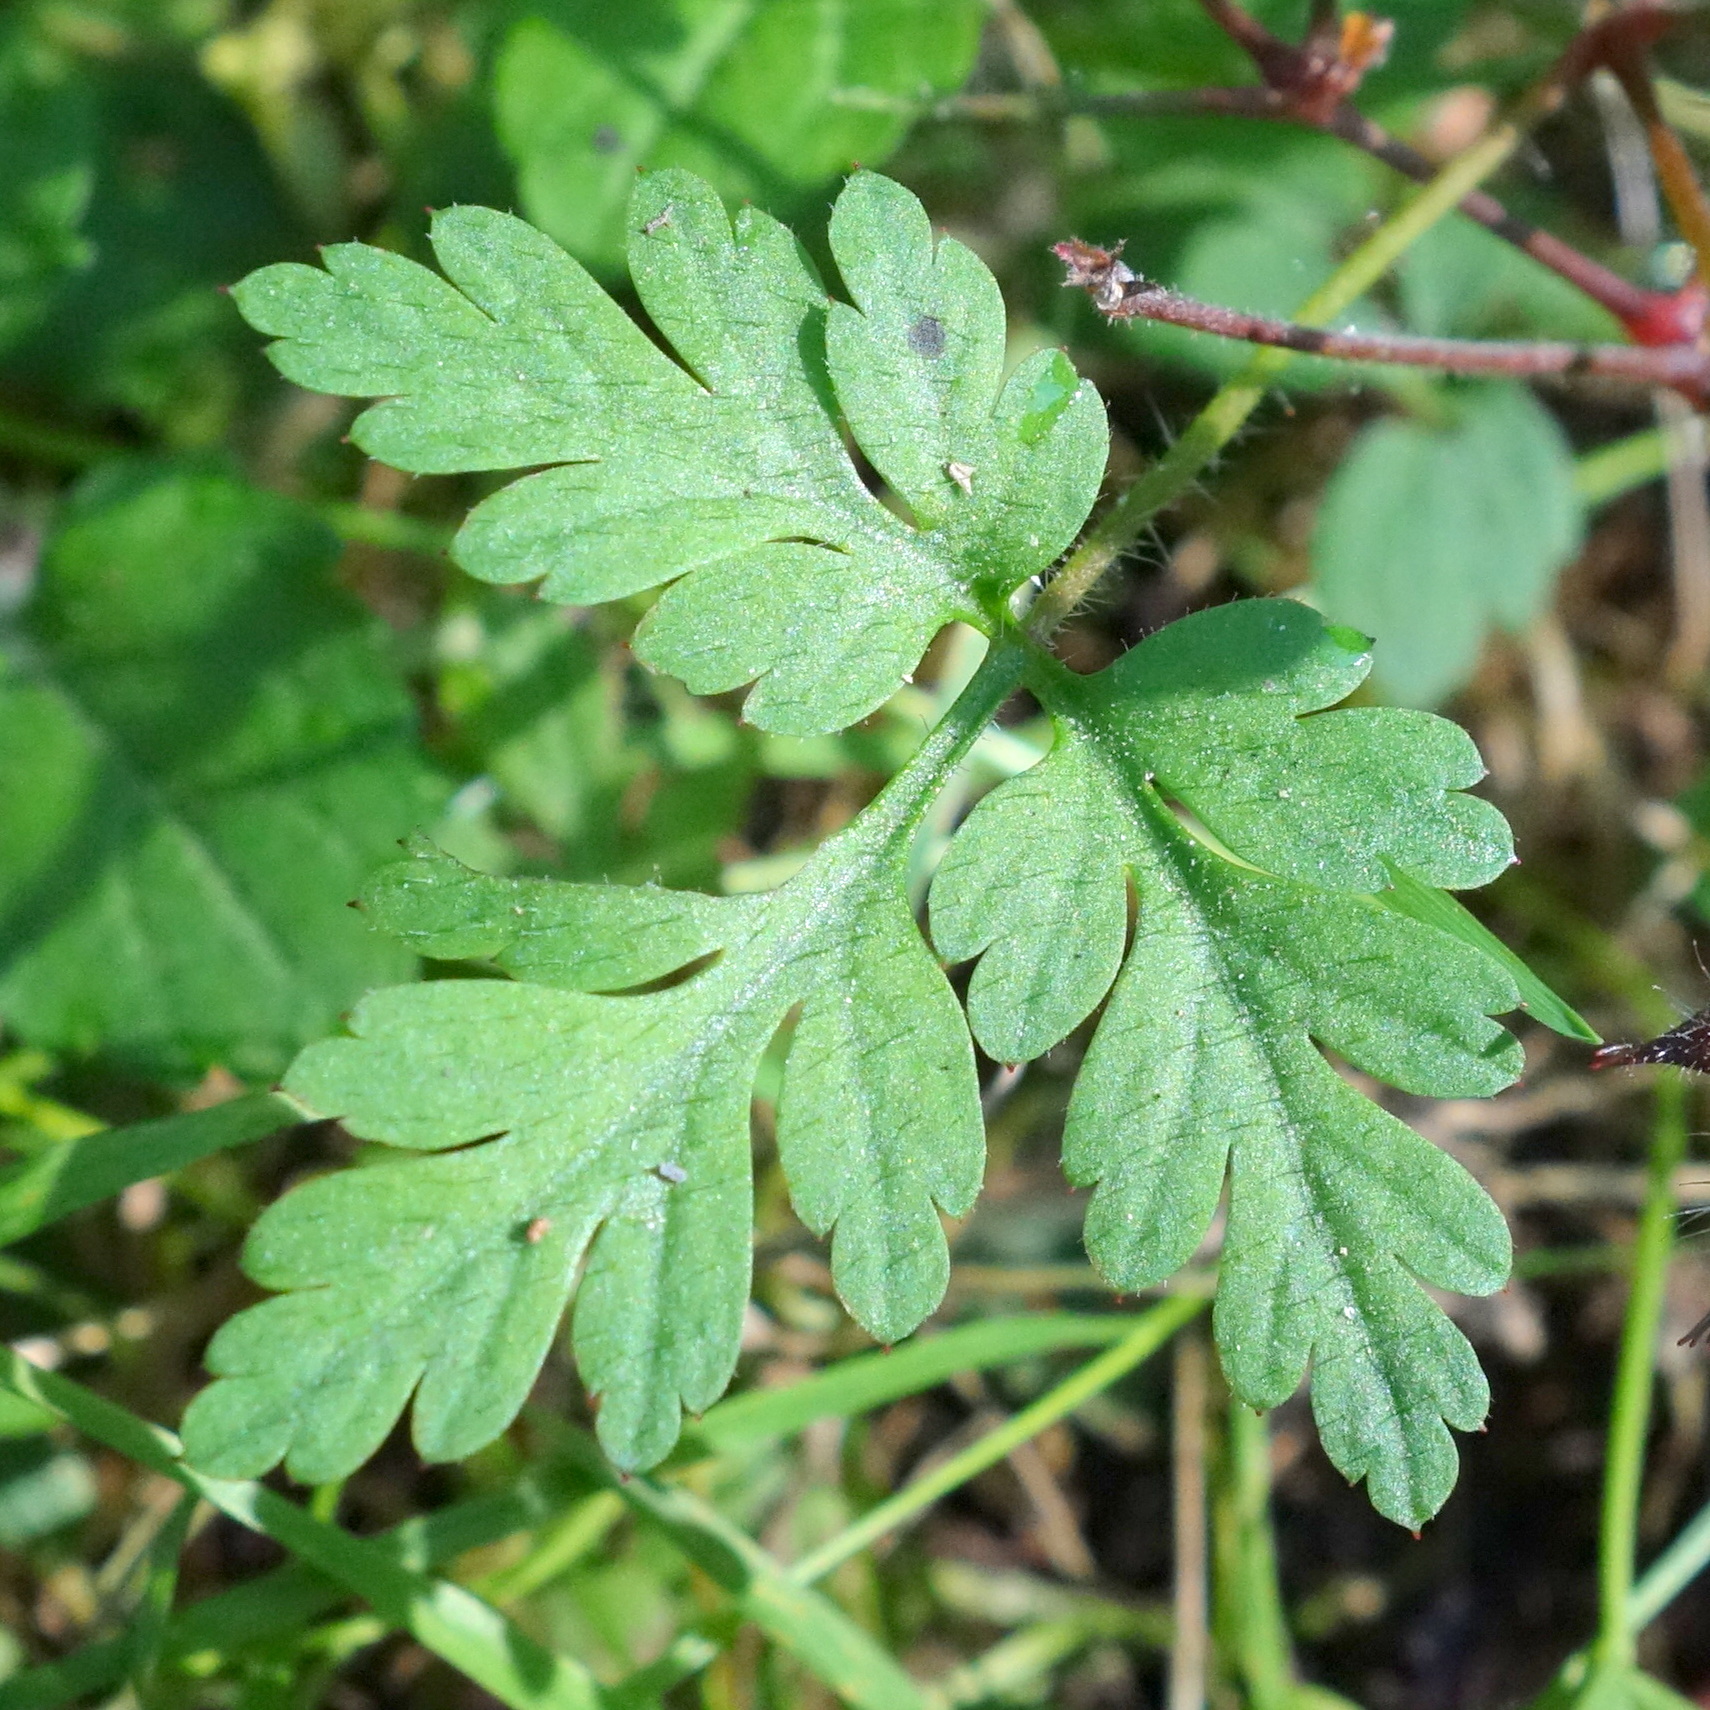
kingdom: Plantae
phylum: Tracheophyta
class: Magnoliopsida
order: Geraniales
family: Geraniaceae
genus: Geranium
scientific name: Geranium robertianum
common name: Herb-robert
